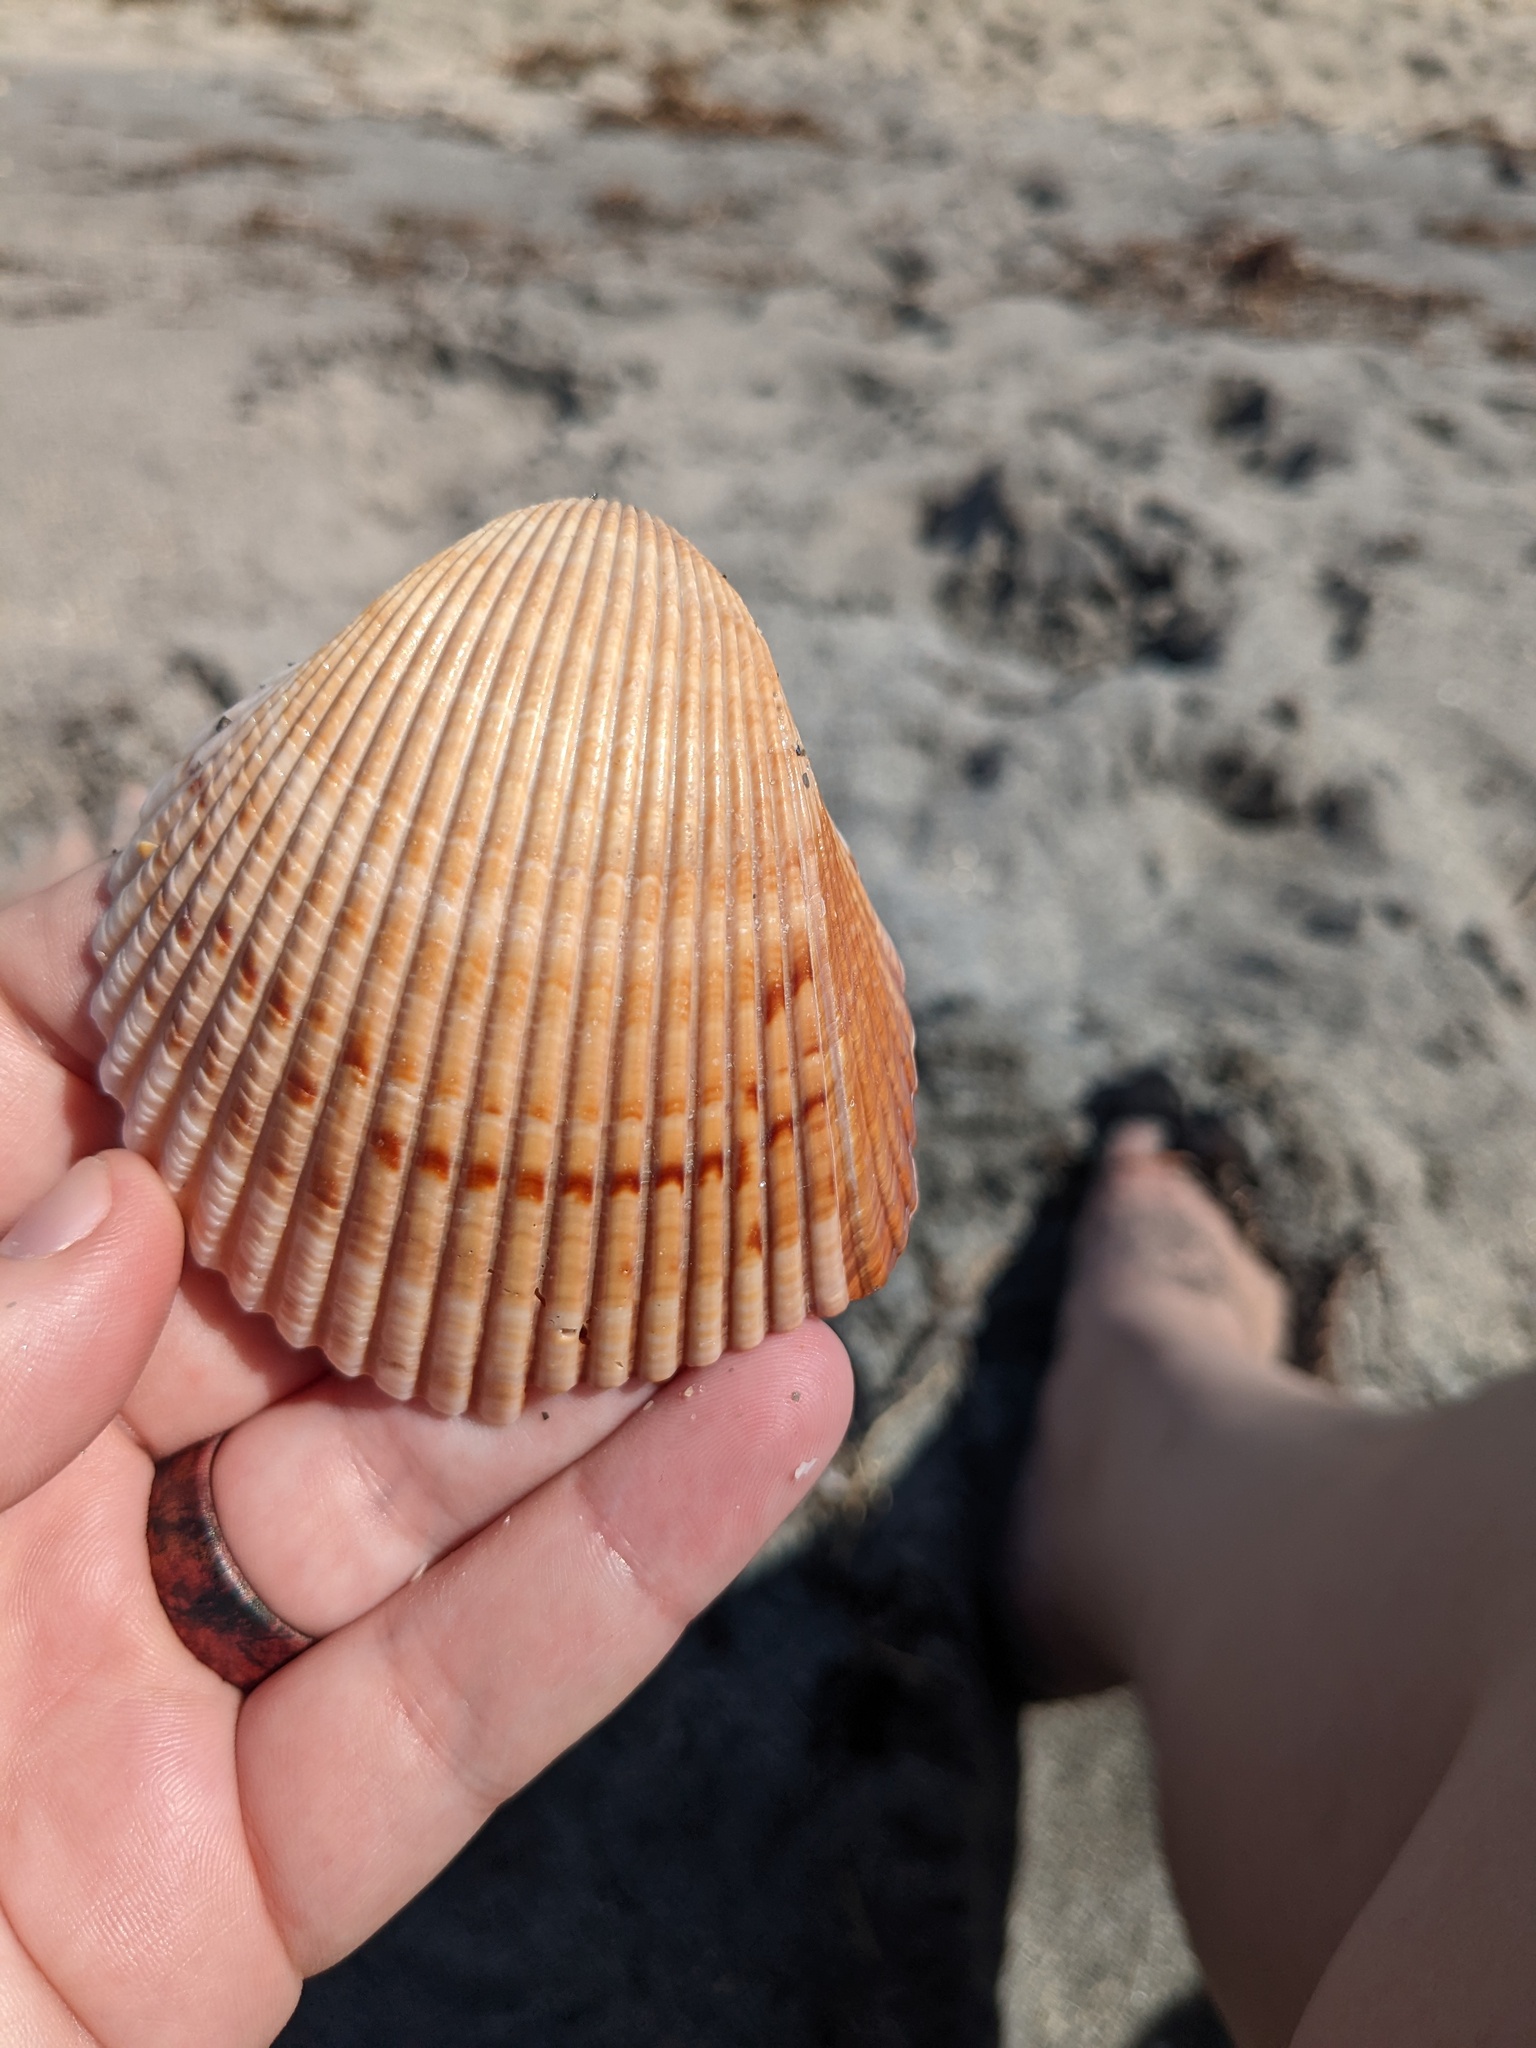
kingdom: Animalia
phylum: Mollusca
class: Bivalvia
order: Cardiida
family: Cardiidae
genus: Dinocardium
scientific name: Dinocardium robustum
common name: Atlantic giant cockle
